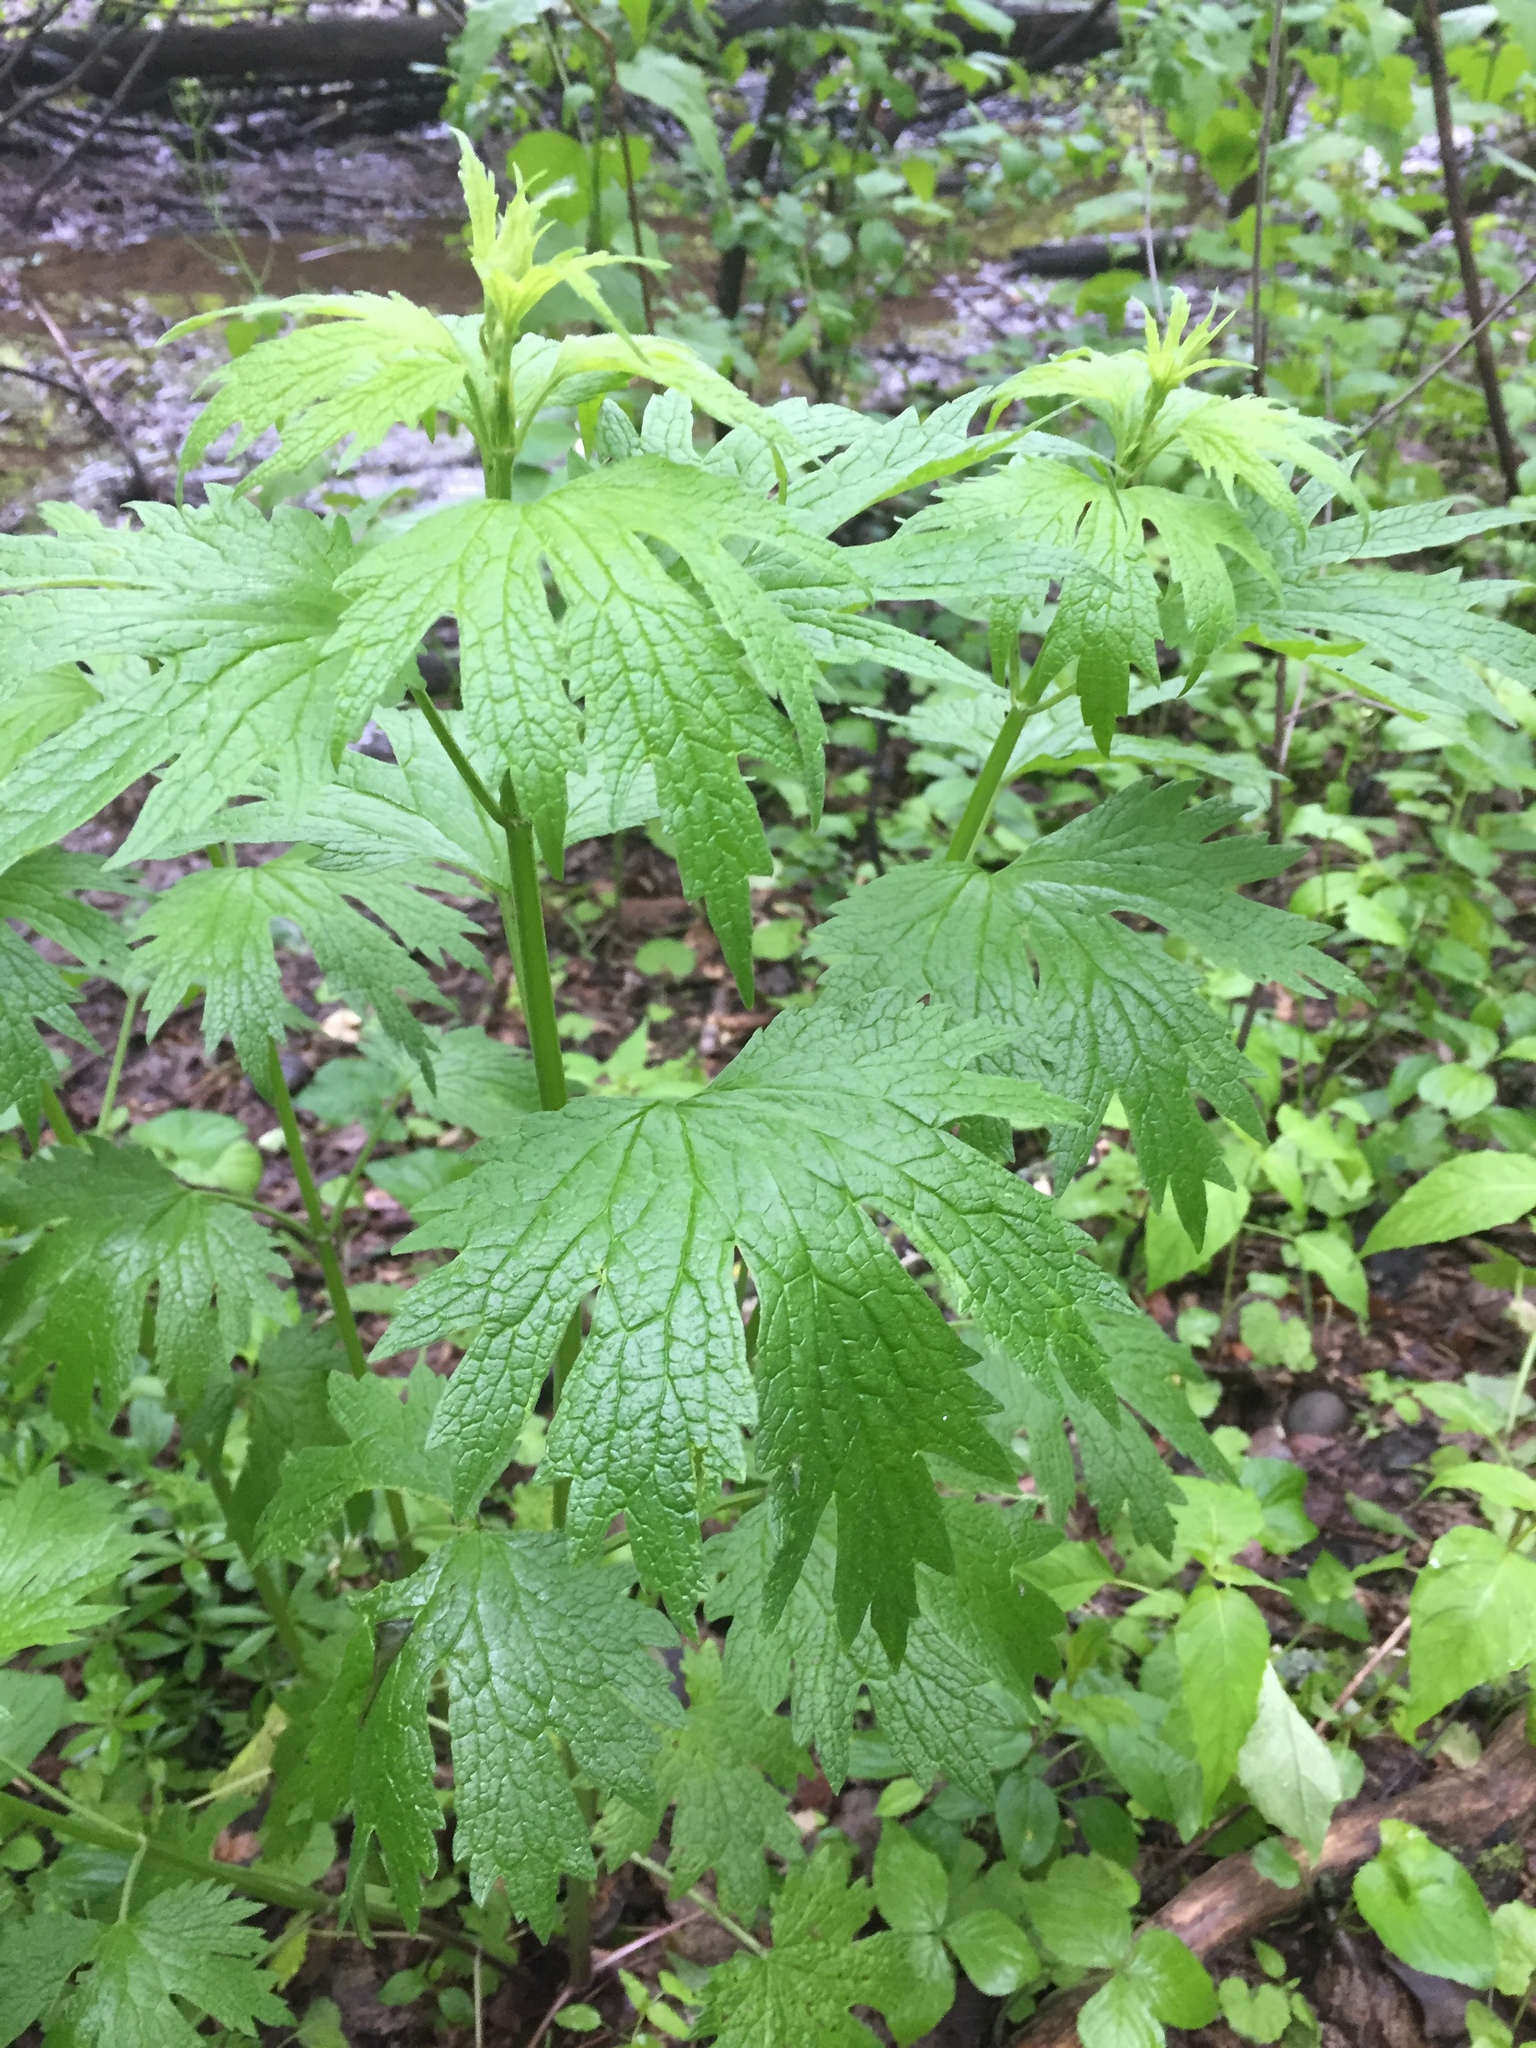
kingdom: Plantae
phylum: Tracheophyta
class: Magnoliopsida
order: Lamiales
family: Lamiaceae
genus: Leonurus
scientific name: Leonurus cardiaca
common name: Motherwort
